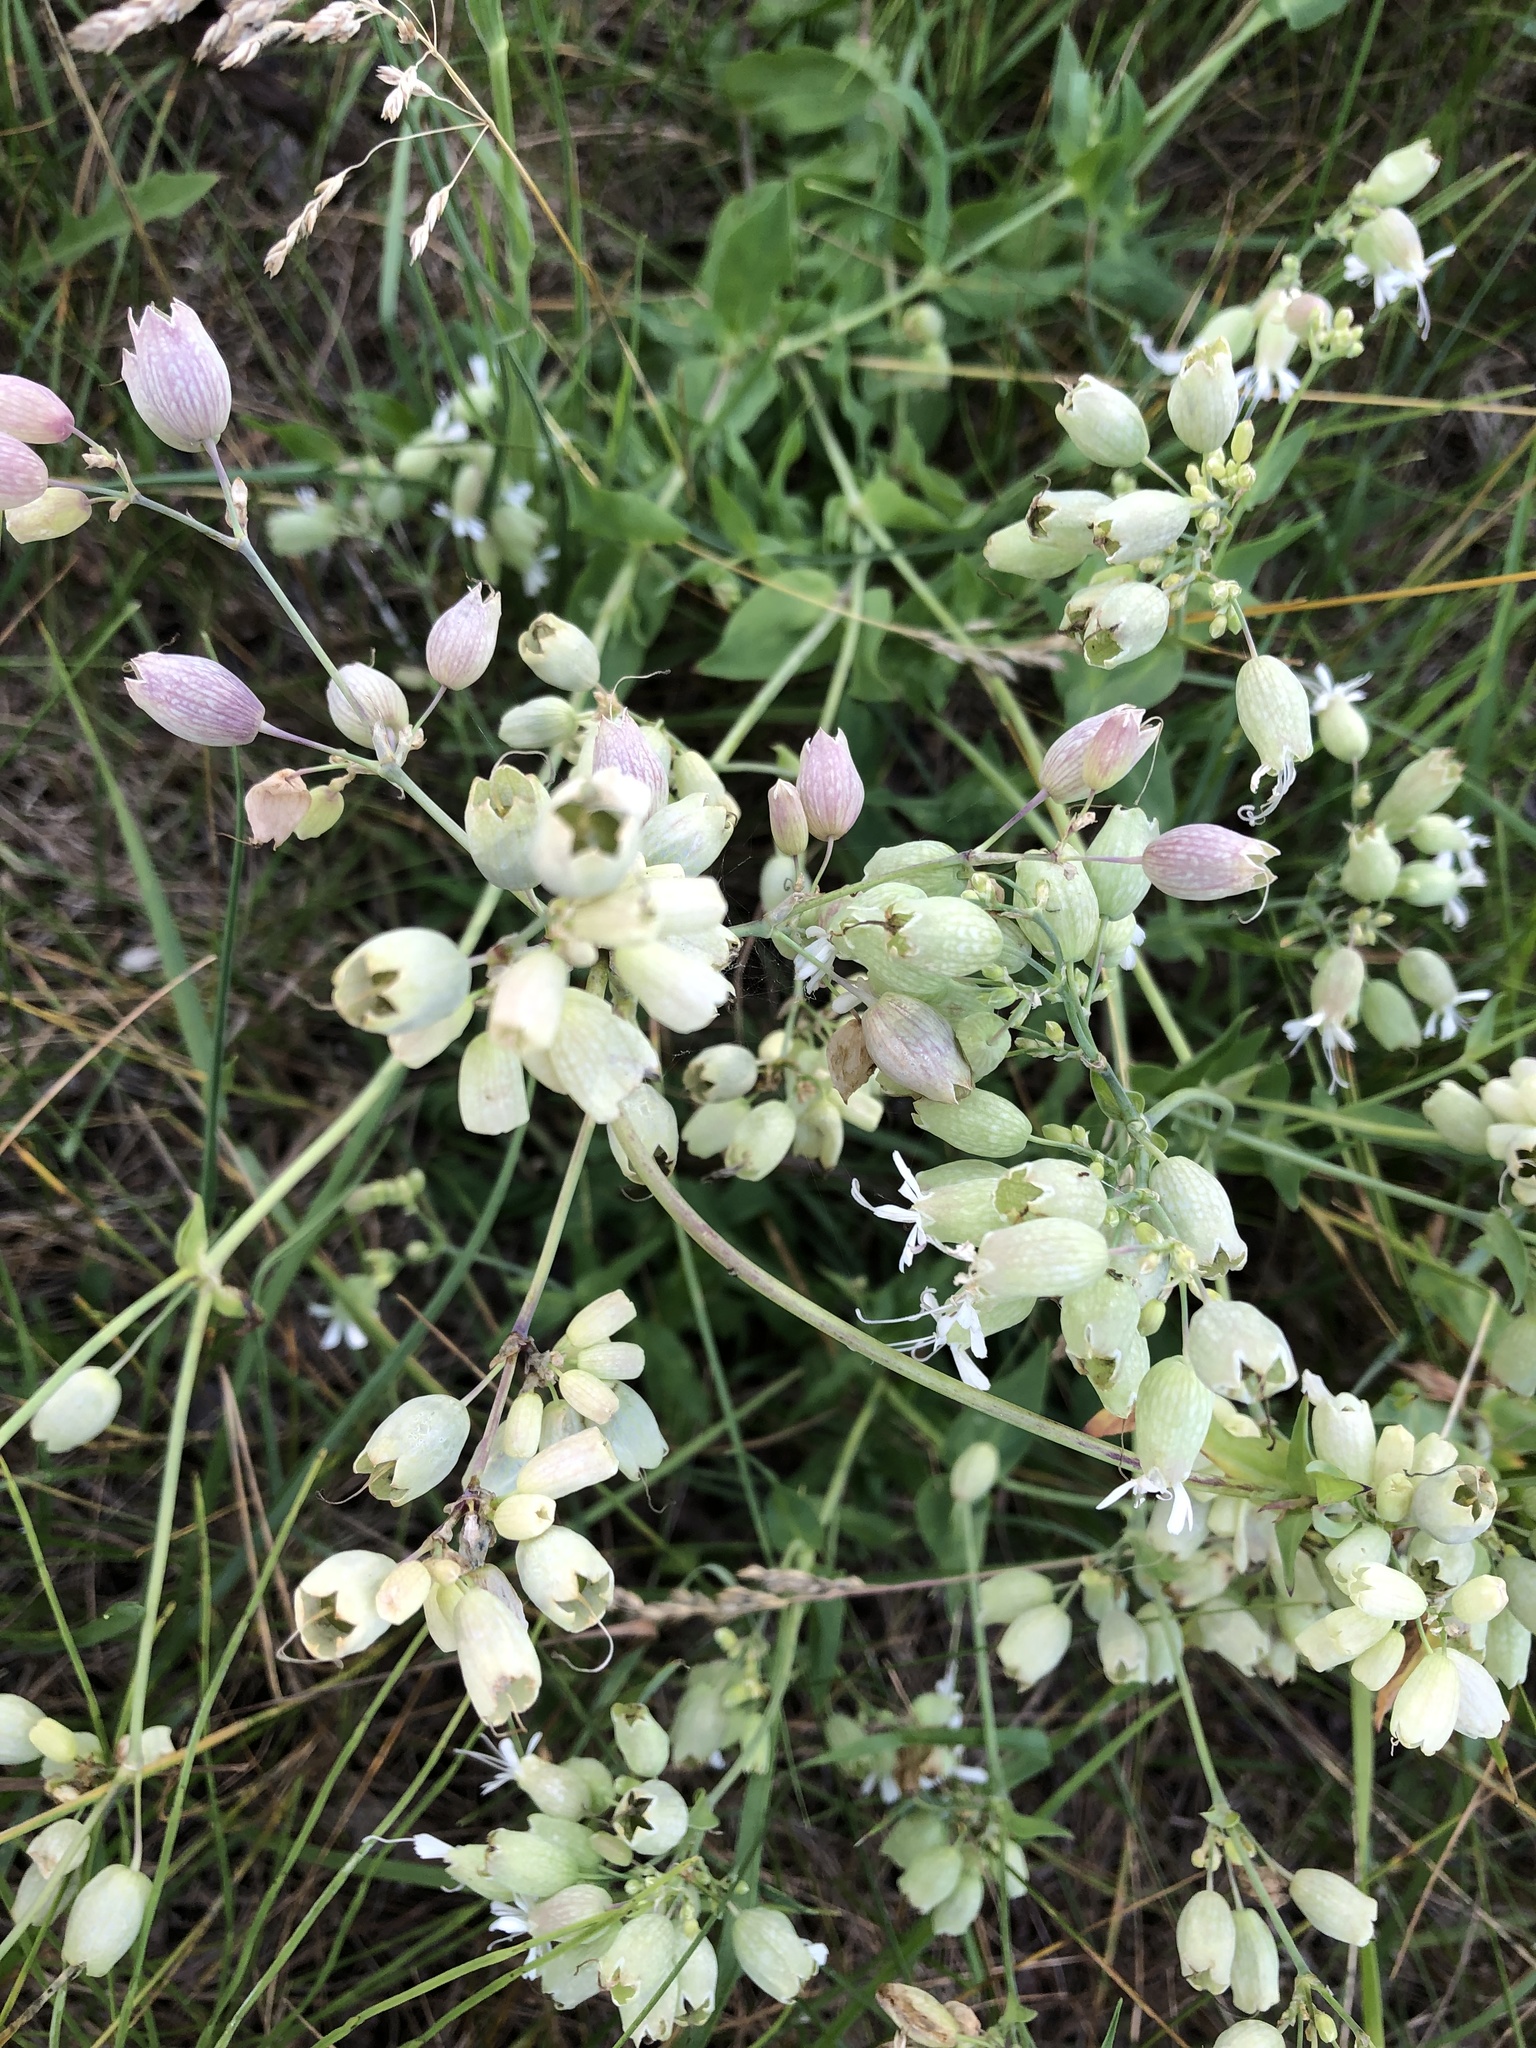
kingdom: Plantae
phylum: Tracheophyta
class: Magnoliopsida
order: Caryophyllales
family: Caryophyllaceae
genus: Silene
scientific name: Silene vulgaris
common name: Bladder campion
